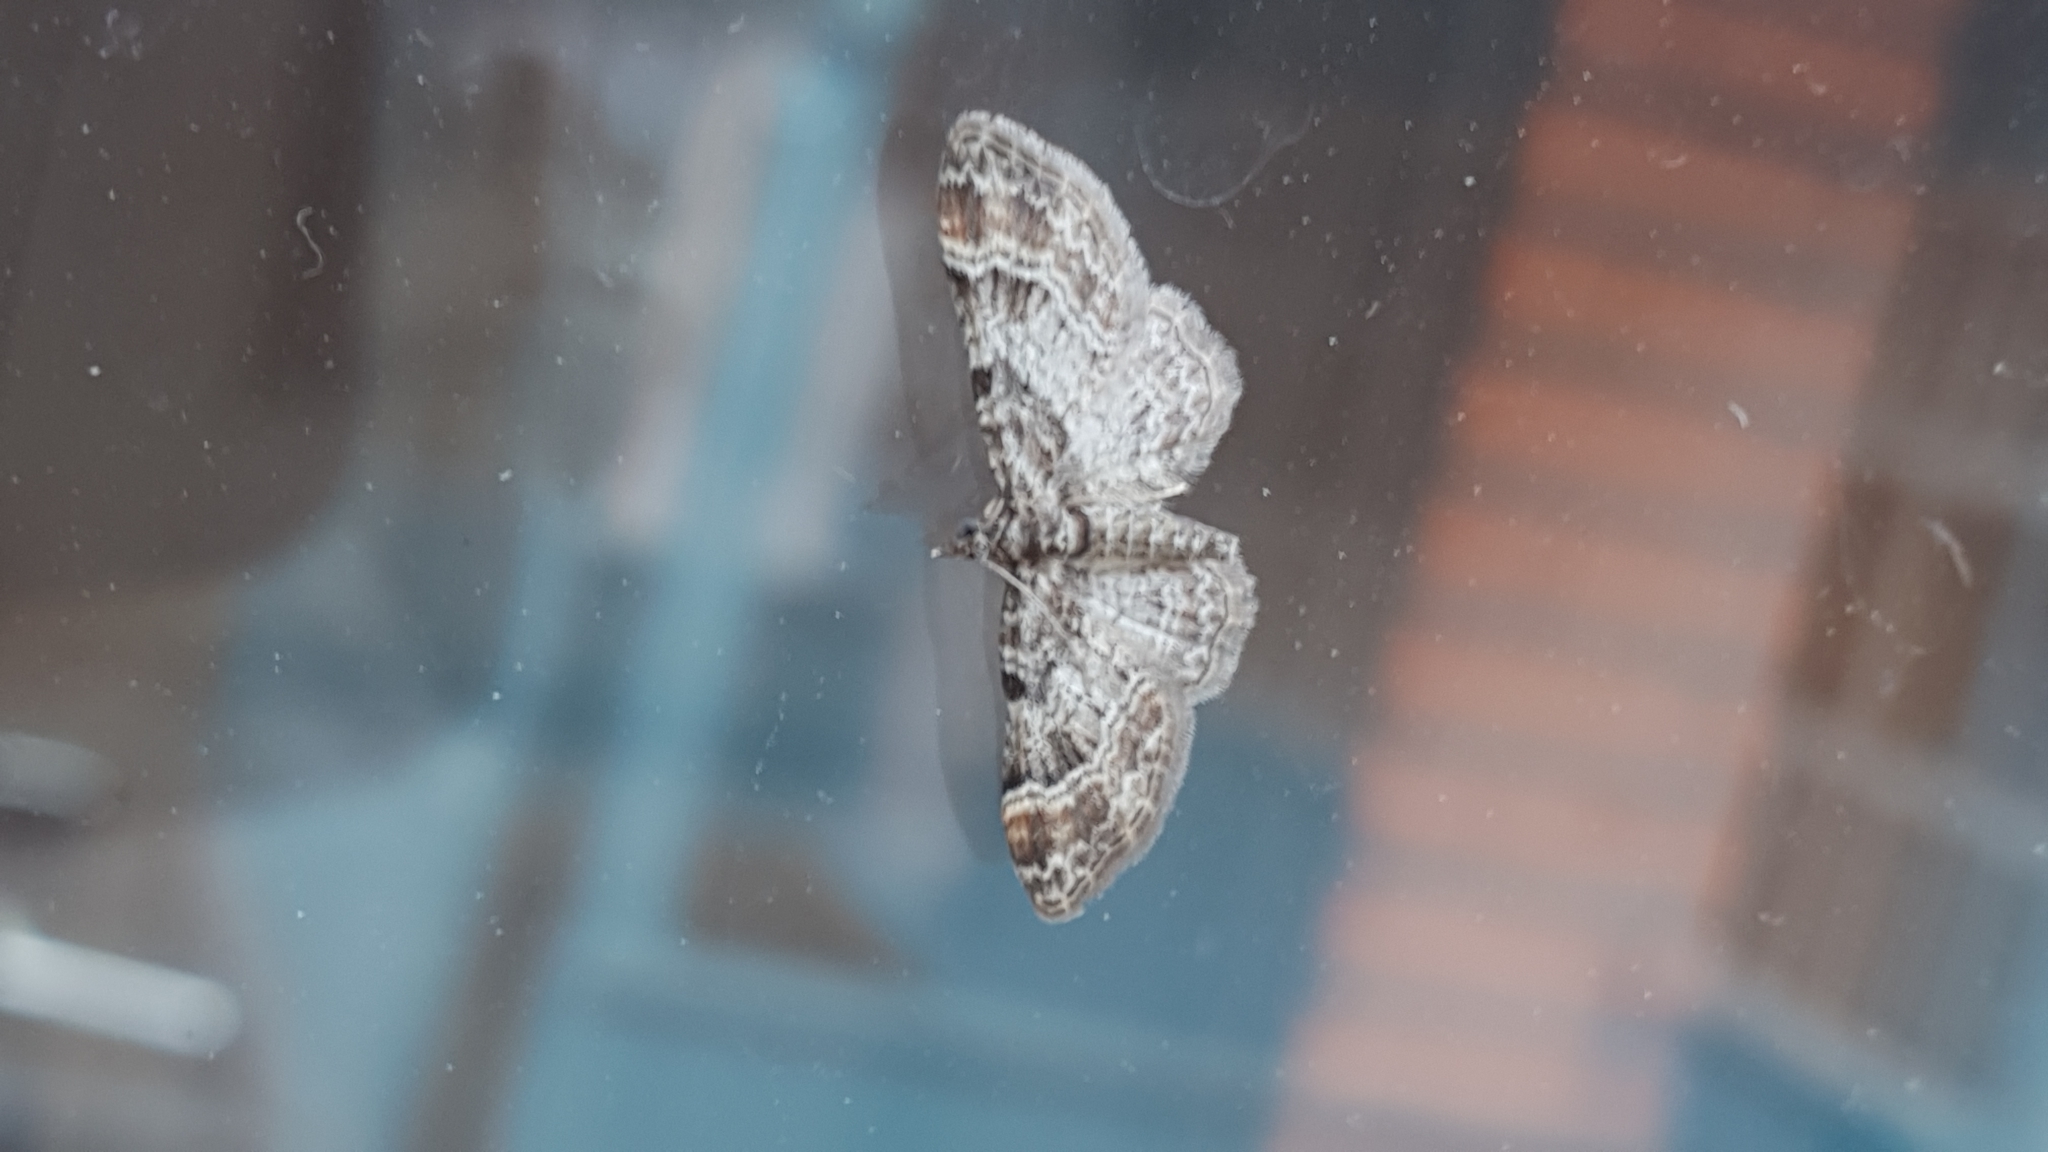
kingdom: Animalia
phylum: Arthropoda
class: Insecta
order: Lepidoptera
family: Geometridae
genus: Gymnoscelis
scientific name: Gymnoscelis rufifasciata
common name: Double-striped pug
